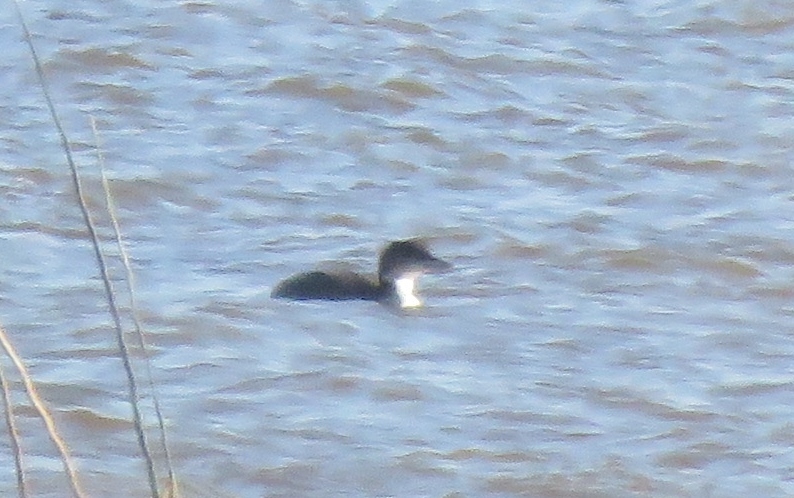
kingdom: Animalia
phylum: Chordata
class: Aves
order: Gaviiformes
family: Gaviidae
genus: Gavia
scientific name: Gavia immer
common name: Common loon
